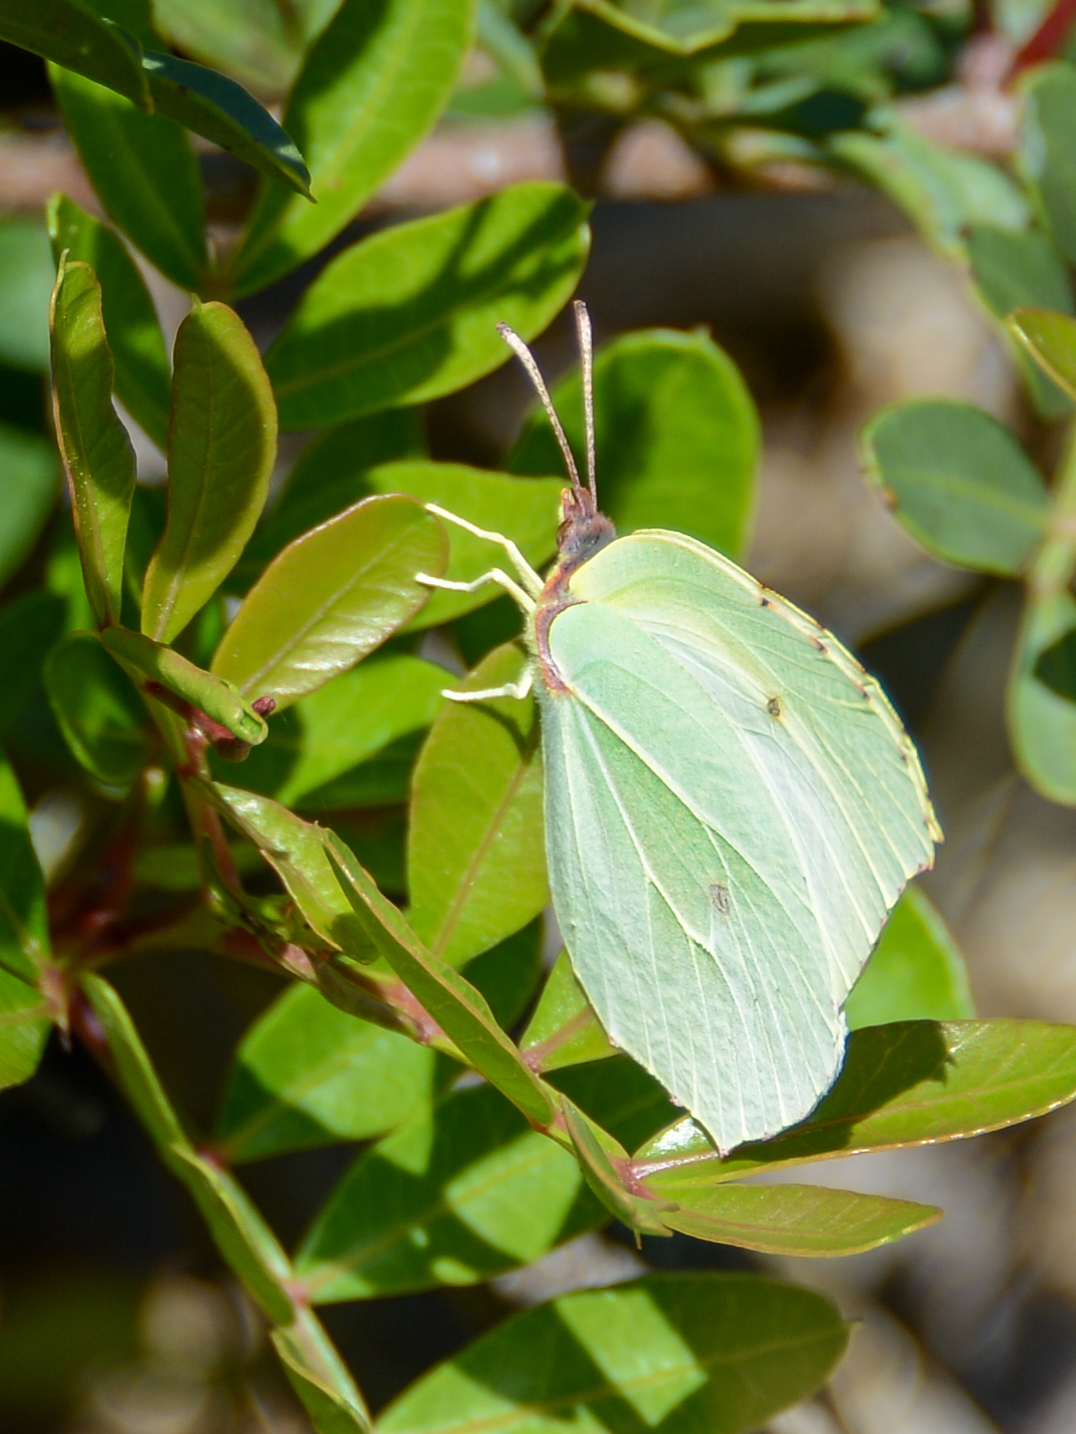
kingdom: Animalia
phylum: Arthropoda
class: Insecta
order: Lepidoptera
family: Pieridae
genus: Gonepteryx
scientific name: Gonepteryx cleopatra
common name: Cleopatra
